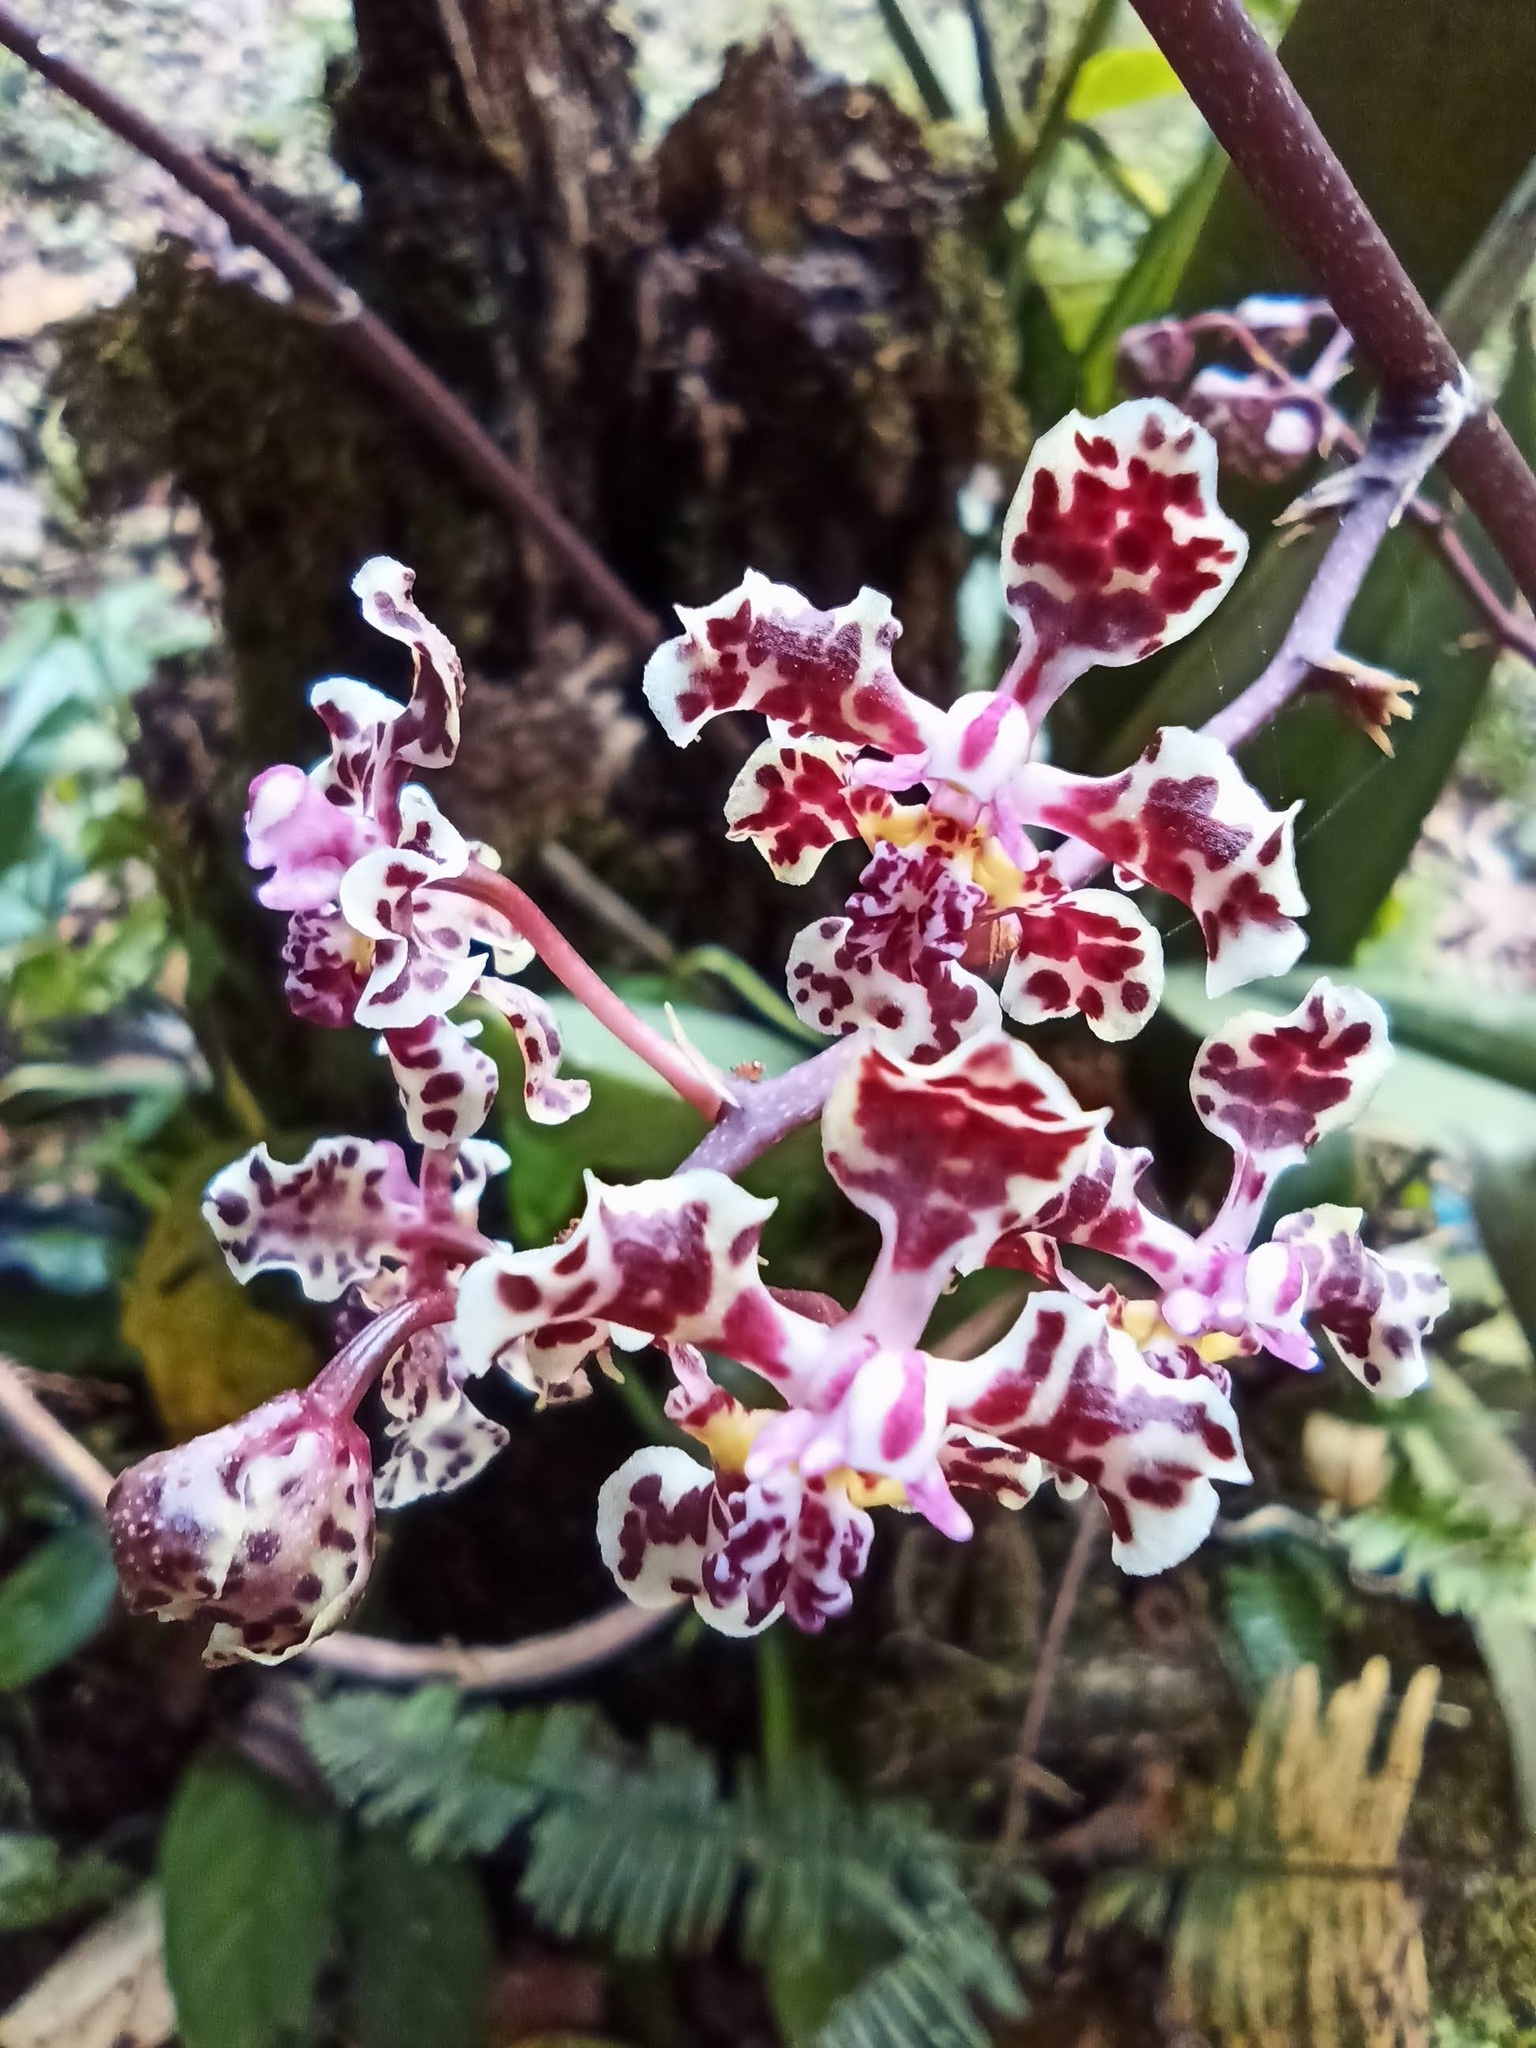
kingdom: Plantae
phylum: Tracheophyta
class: Liliopsida
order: Asparagales
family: Orchidaceae
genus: Trichocentrum
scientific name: Trichocentrum carthagenense
